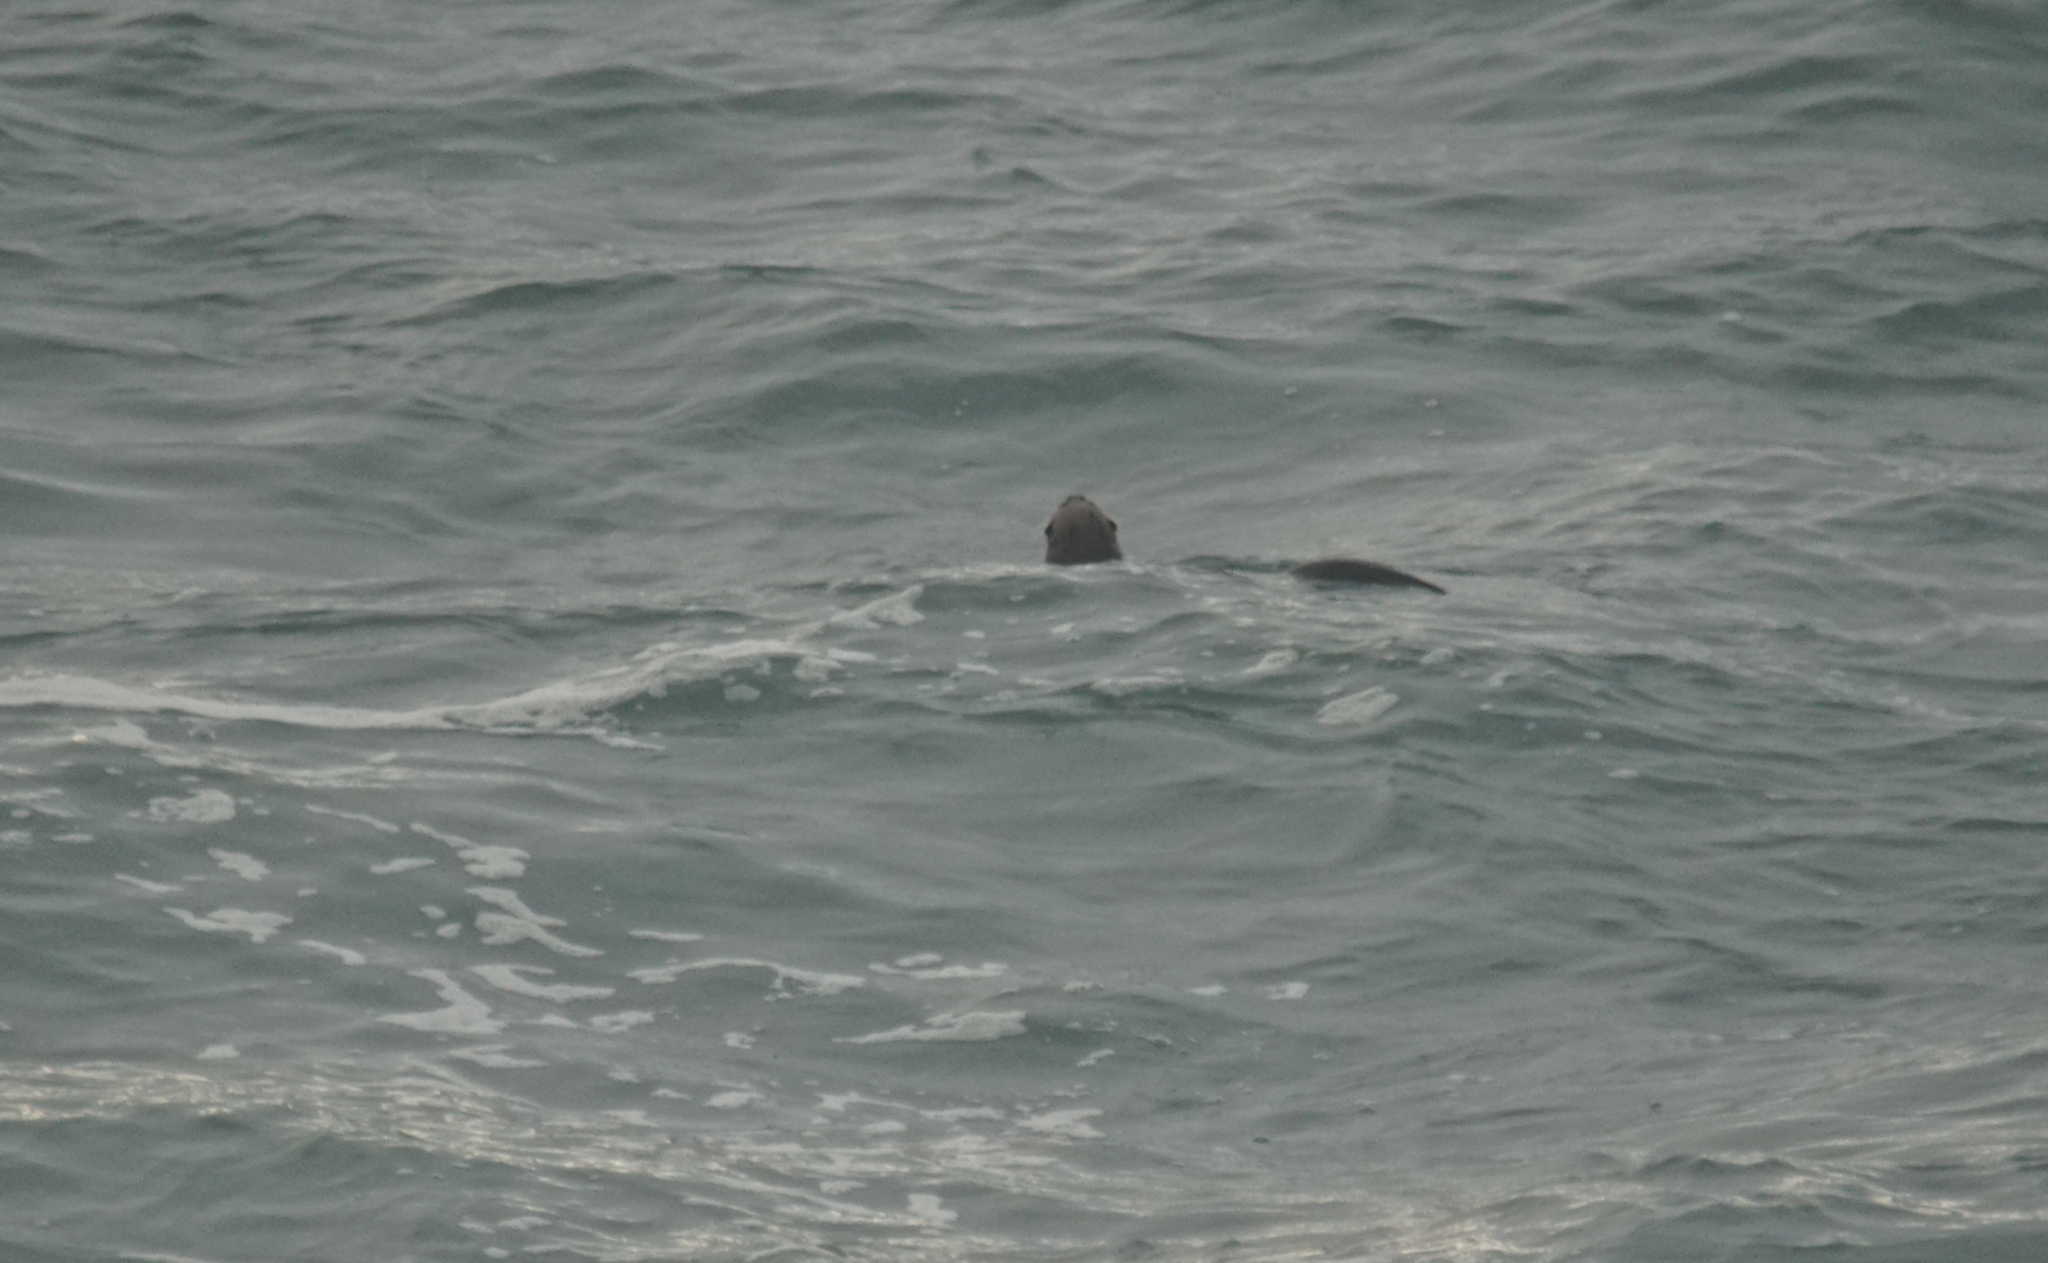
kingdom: Animalia
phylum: Chordata
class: Mammalia
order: Carnivora
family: Mustelidae
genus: Lontra
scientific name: Lontra canadensis
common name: North american river otter
